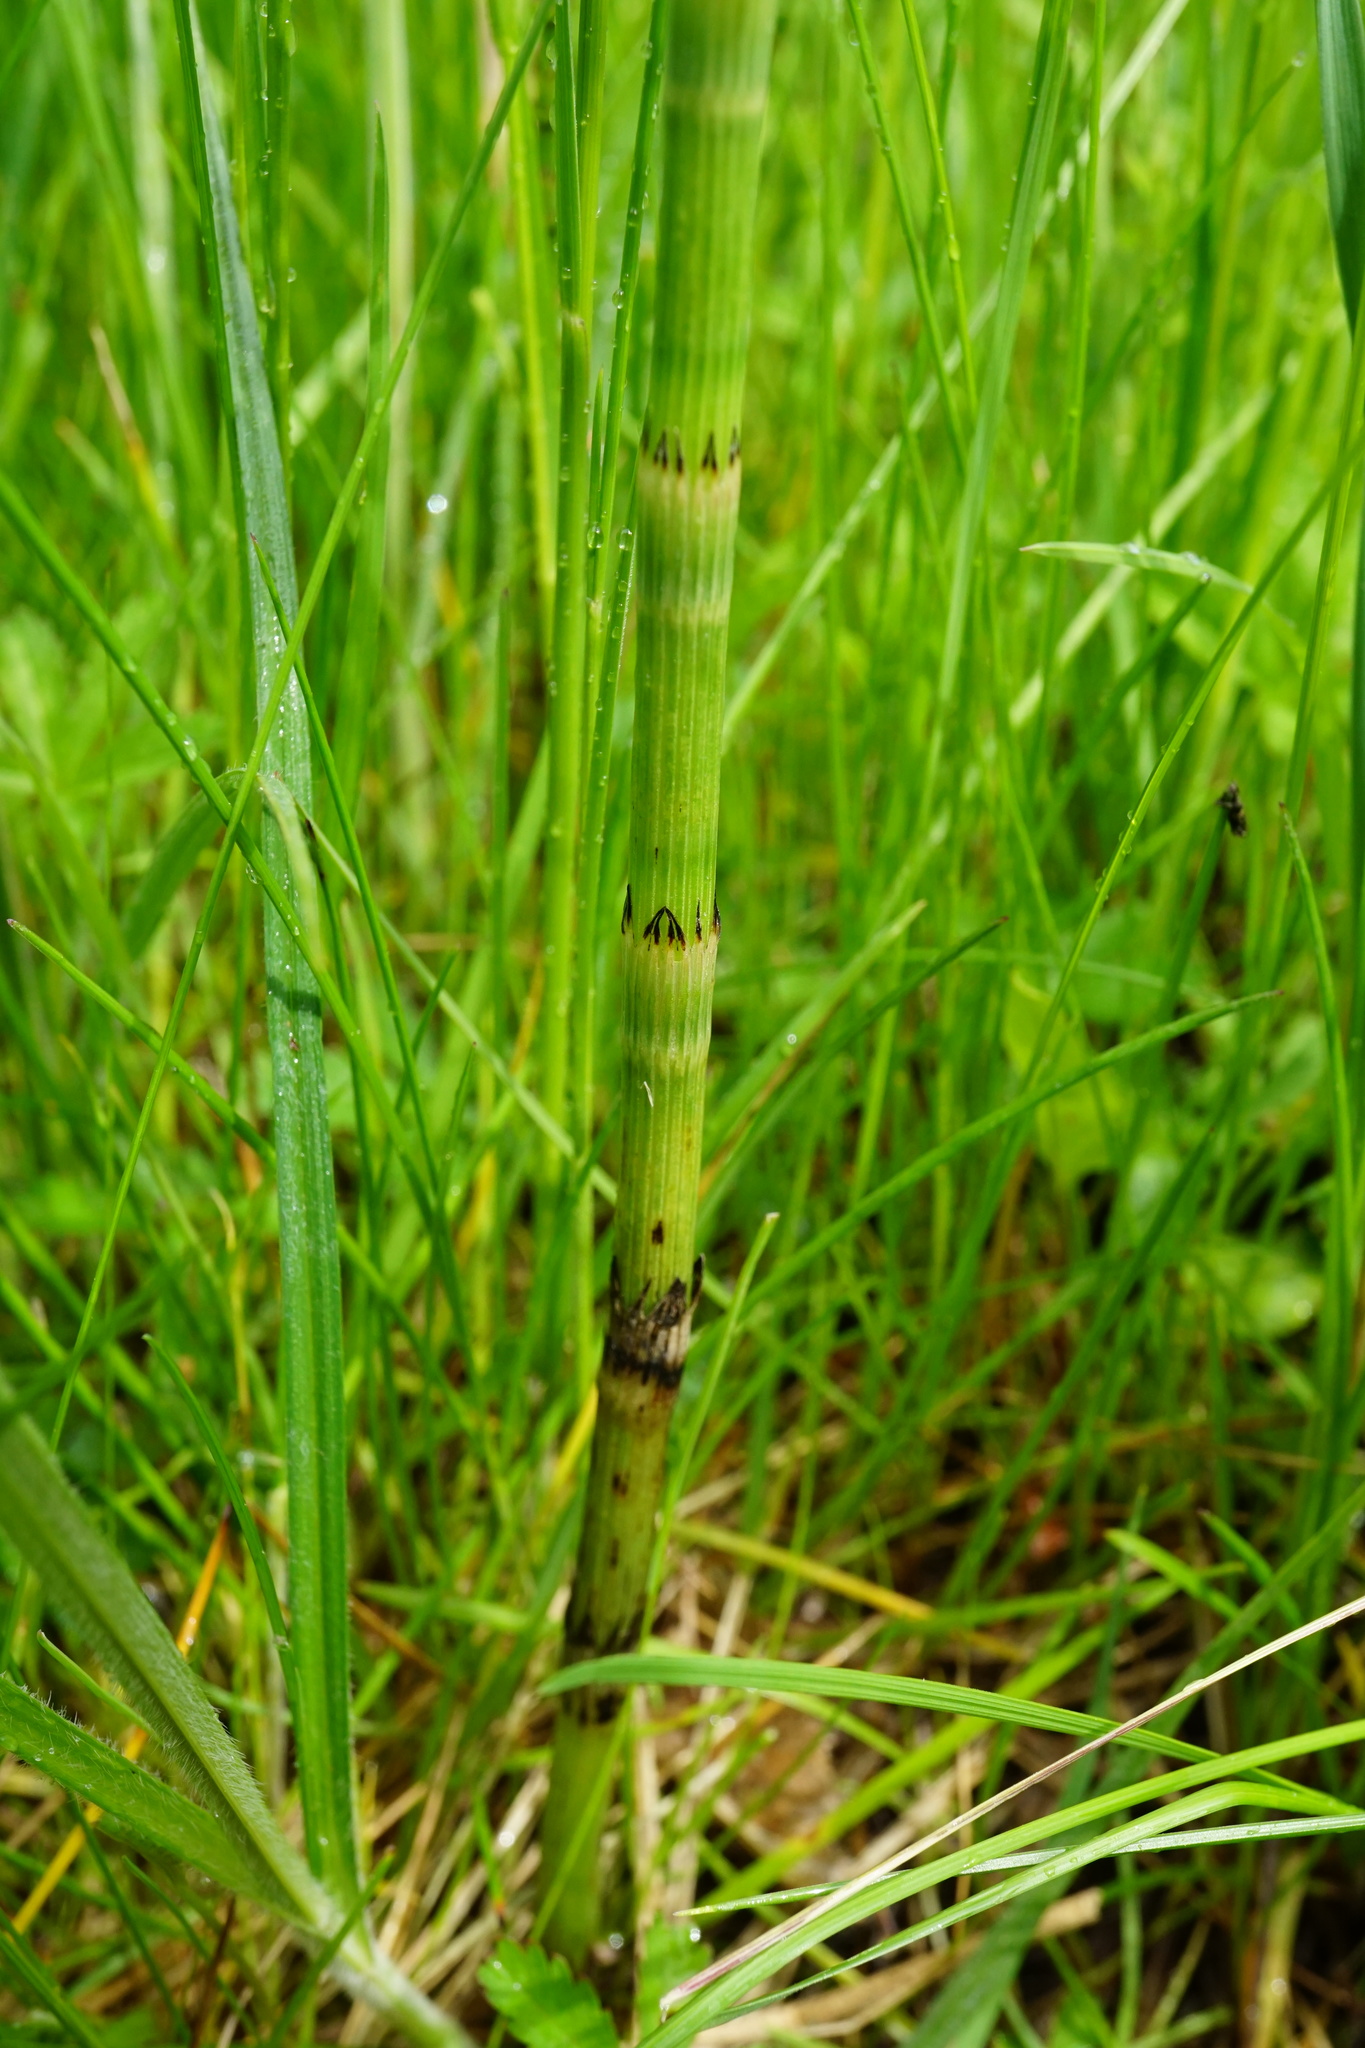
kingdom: Plantae
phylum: Tracheophyta
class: Polypodiopsida
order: Equisetales
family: Equisetaceae
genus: Equisetum
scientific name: Equisetum arvense
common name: Field horsetail
